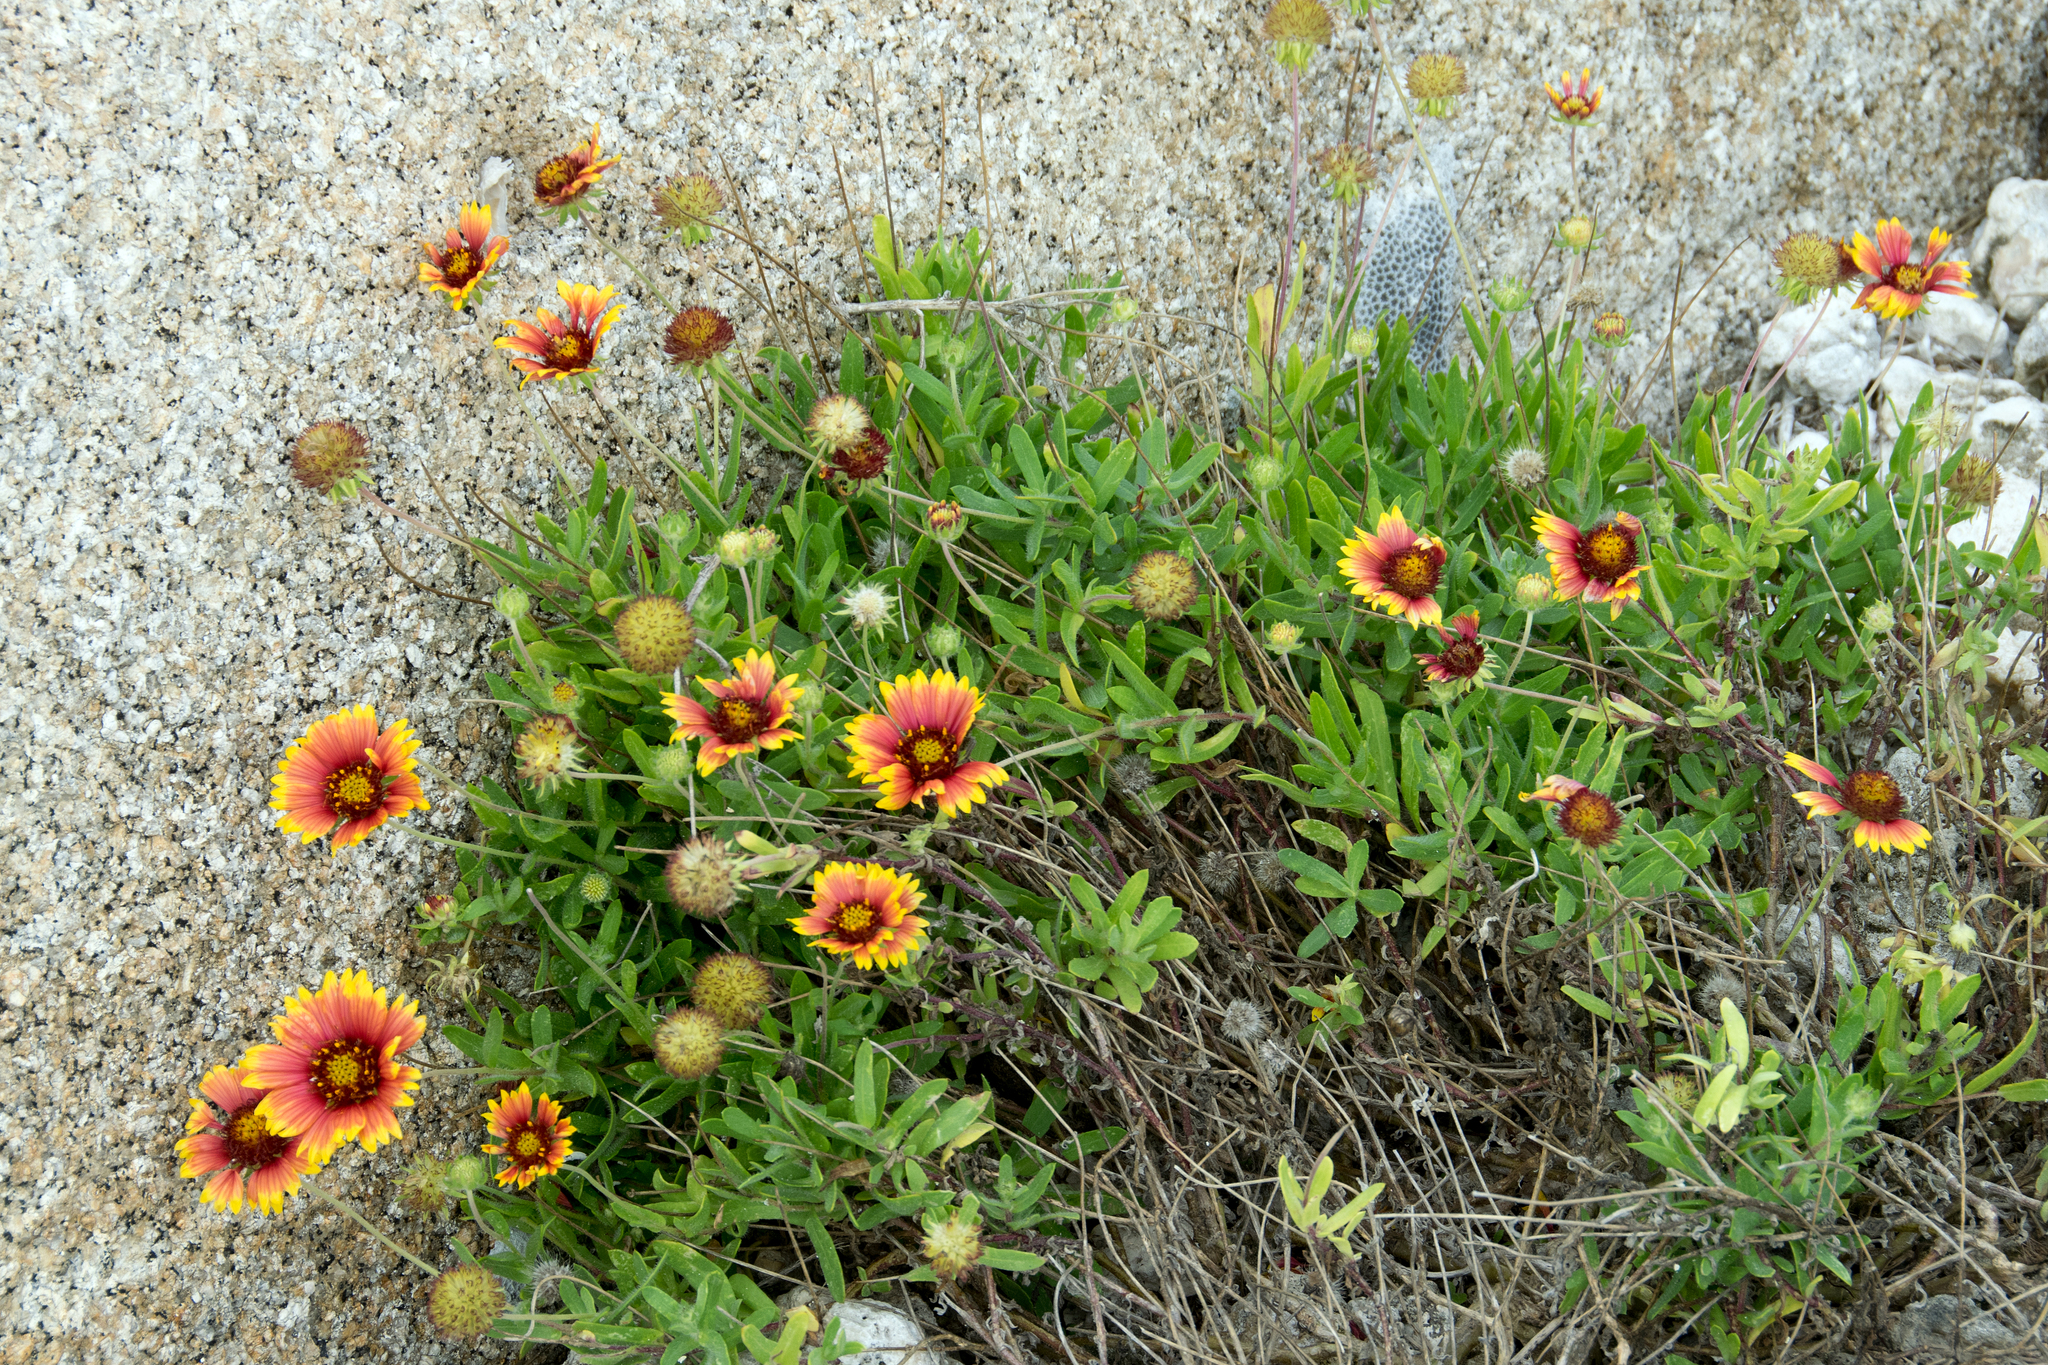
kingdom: Plantae
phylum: Tracheophyta
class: Magnoliopsida
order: Asterales
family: Asteraceae
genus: Gaillardia
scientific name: Gaillardia pulchella
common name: Firewheel
